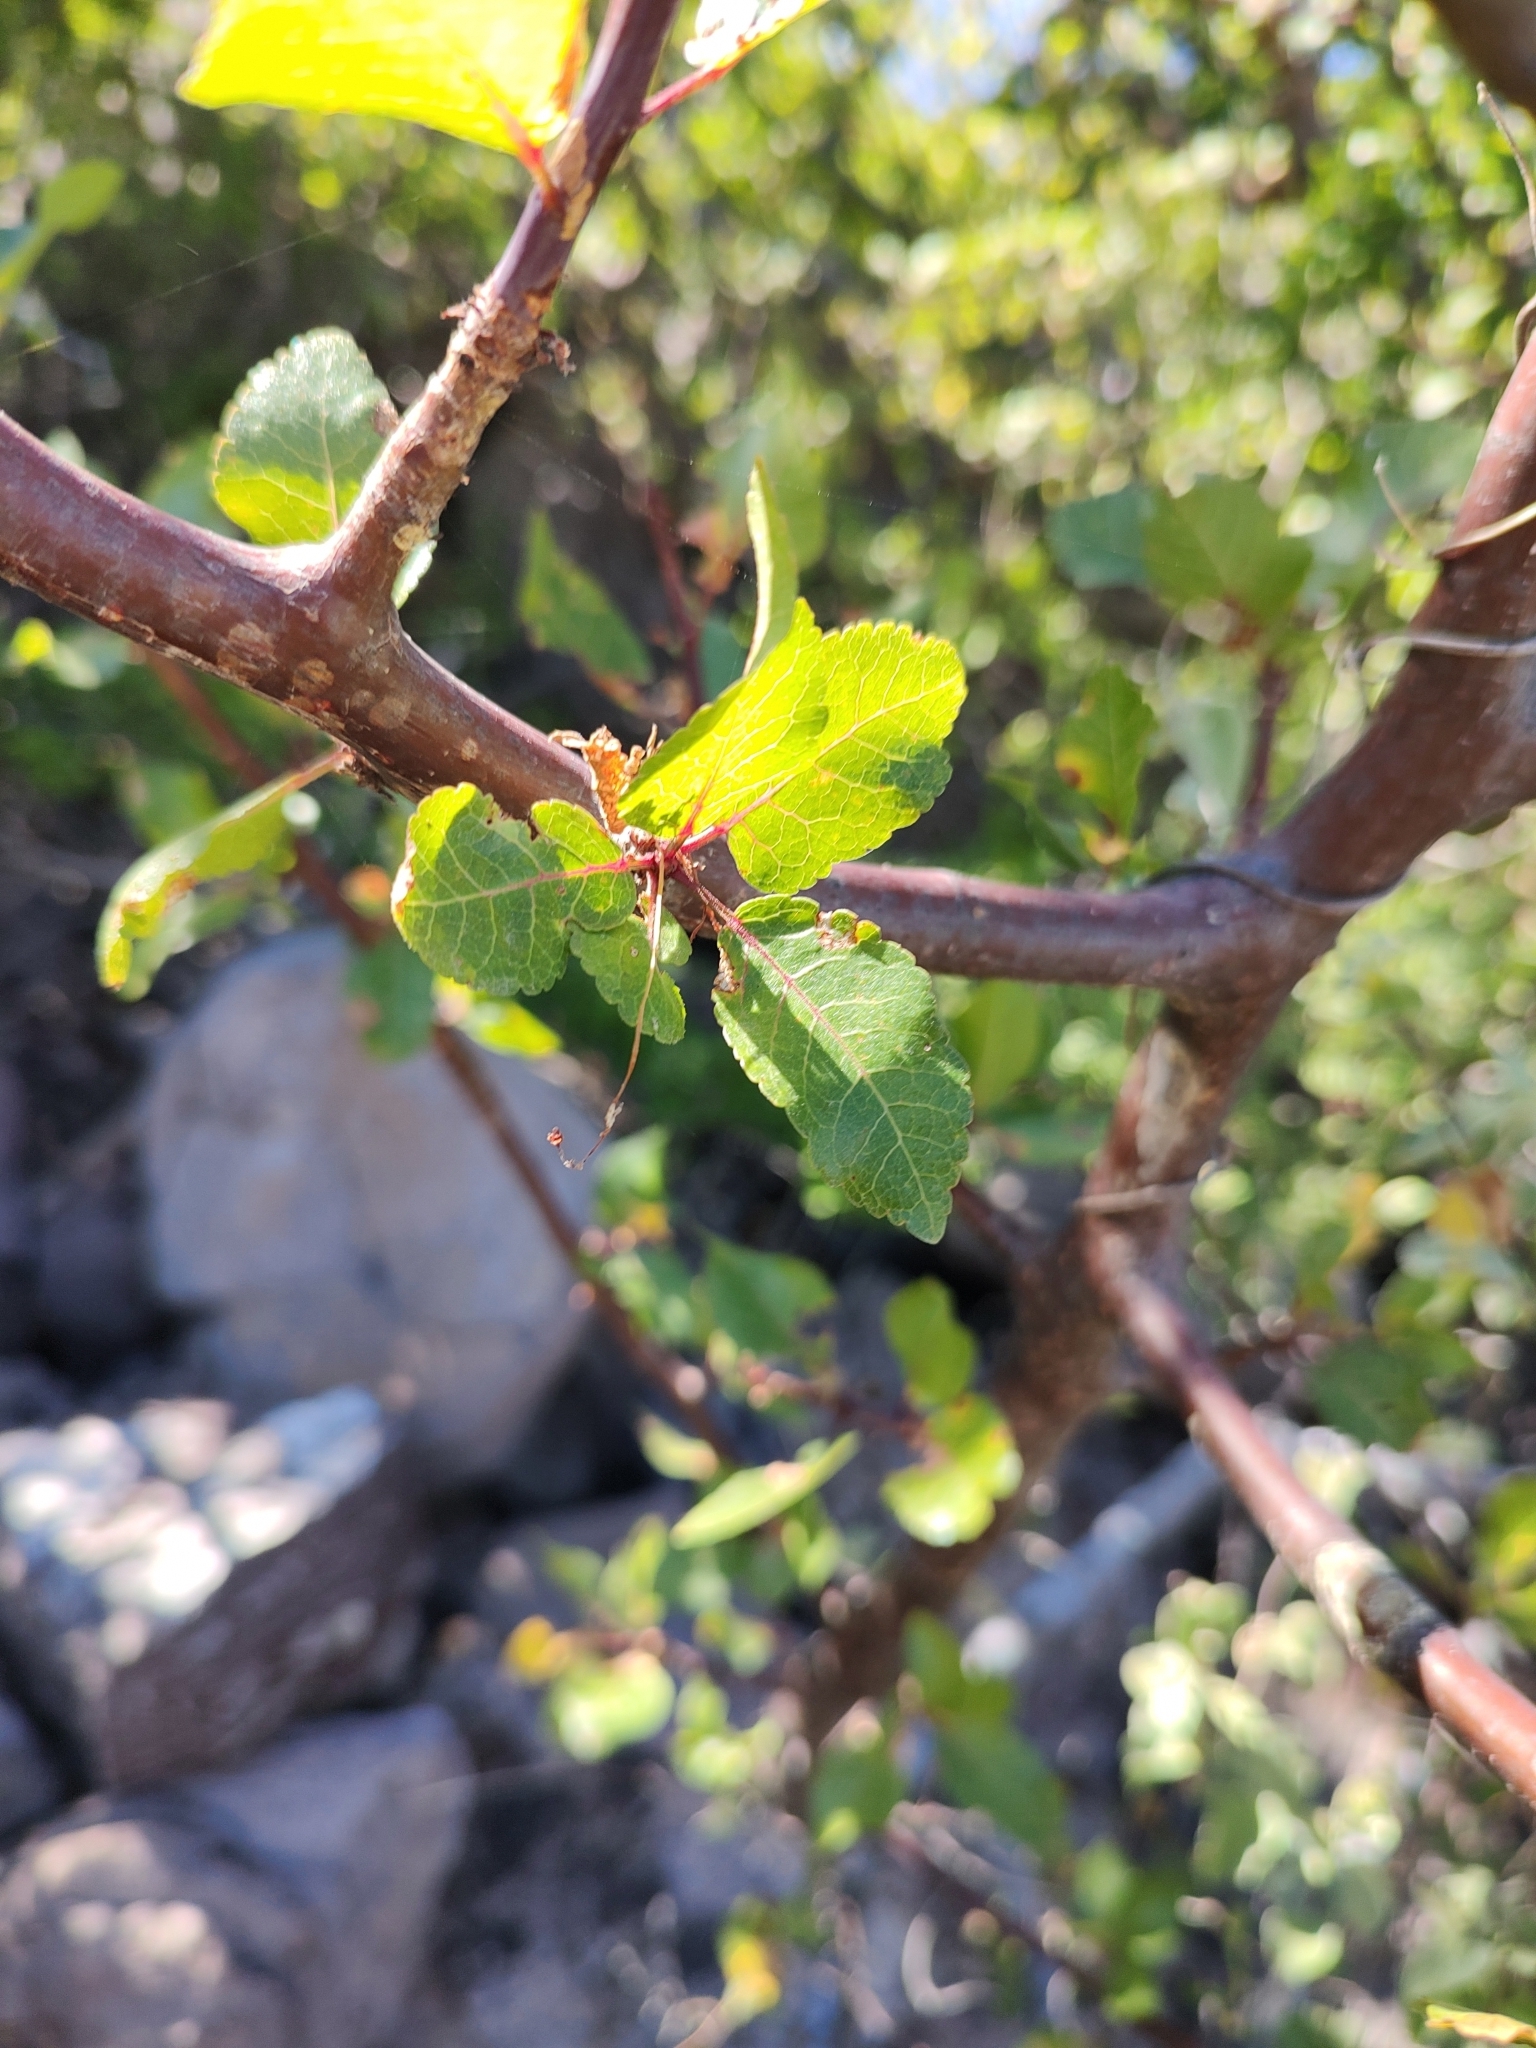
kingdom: Plantae
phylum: Tracheophyta
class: Magnoliopsida
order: Sapindales
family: Burseraceae
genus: Bursera
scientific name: Bursera epinnata
